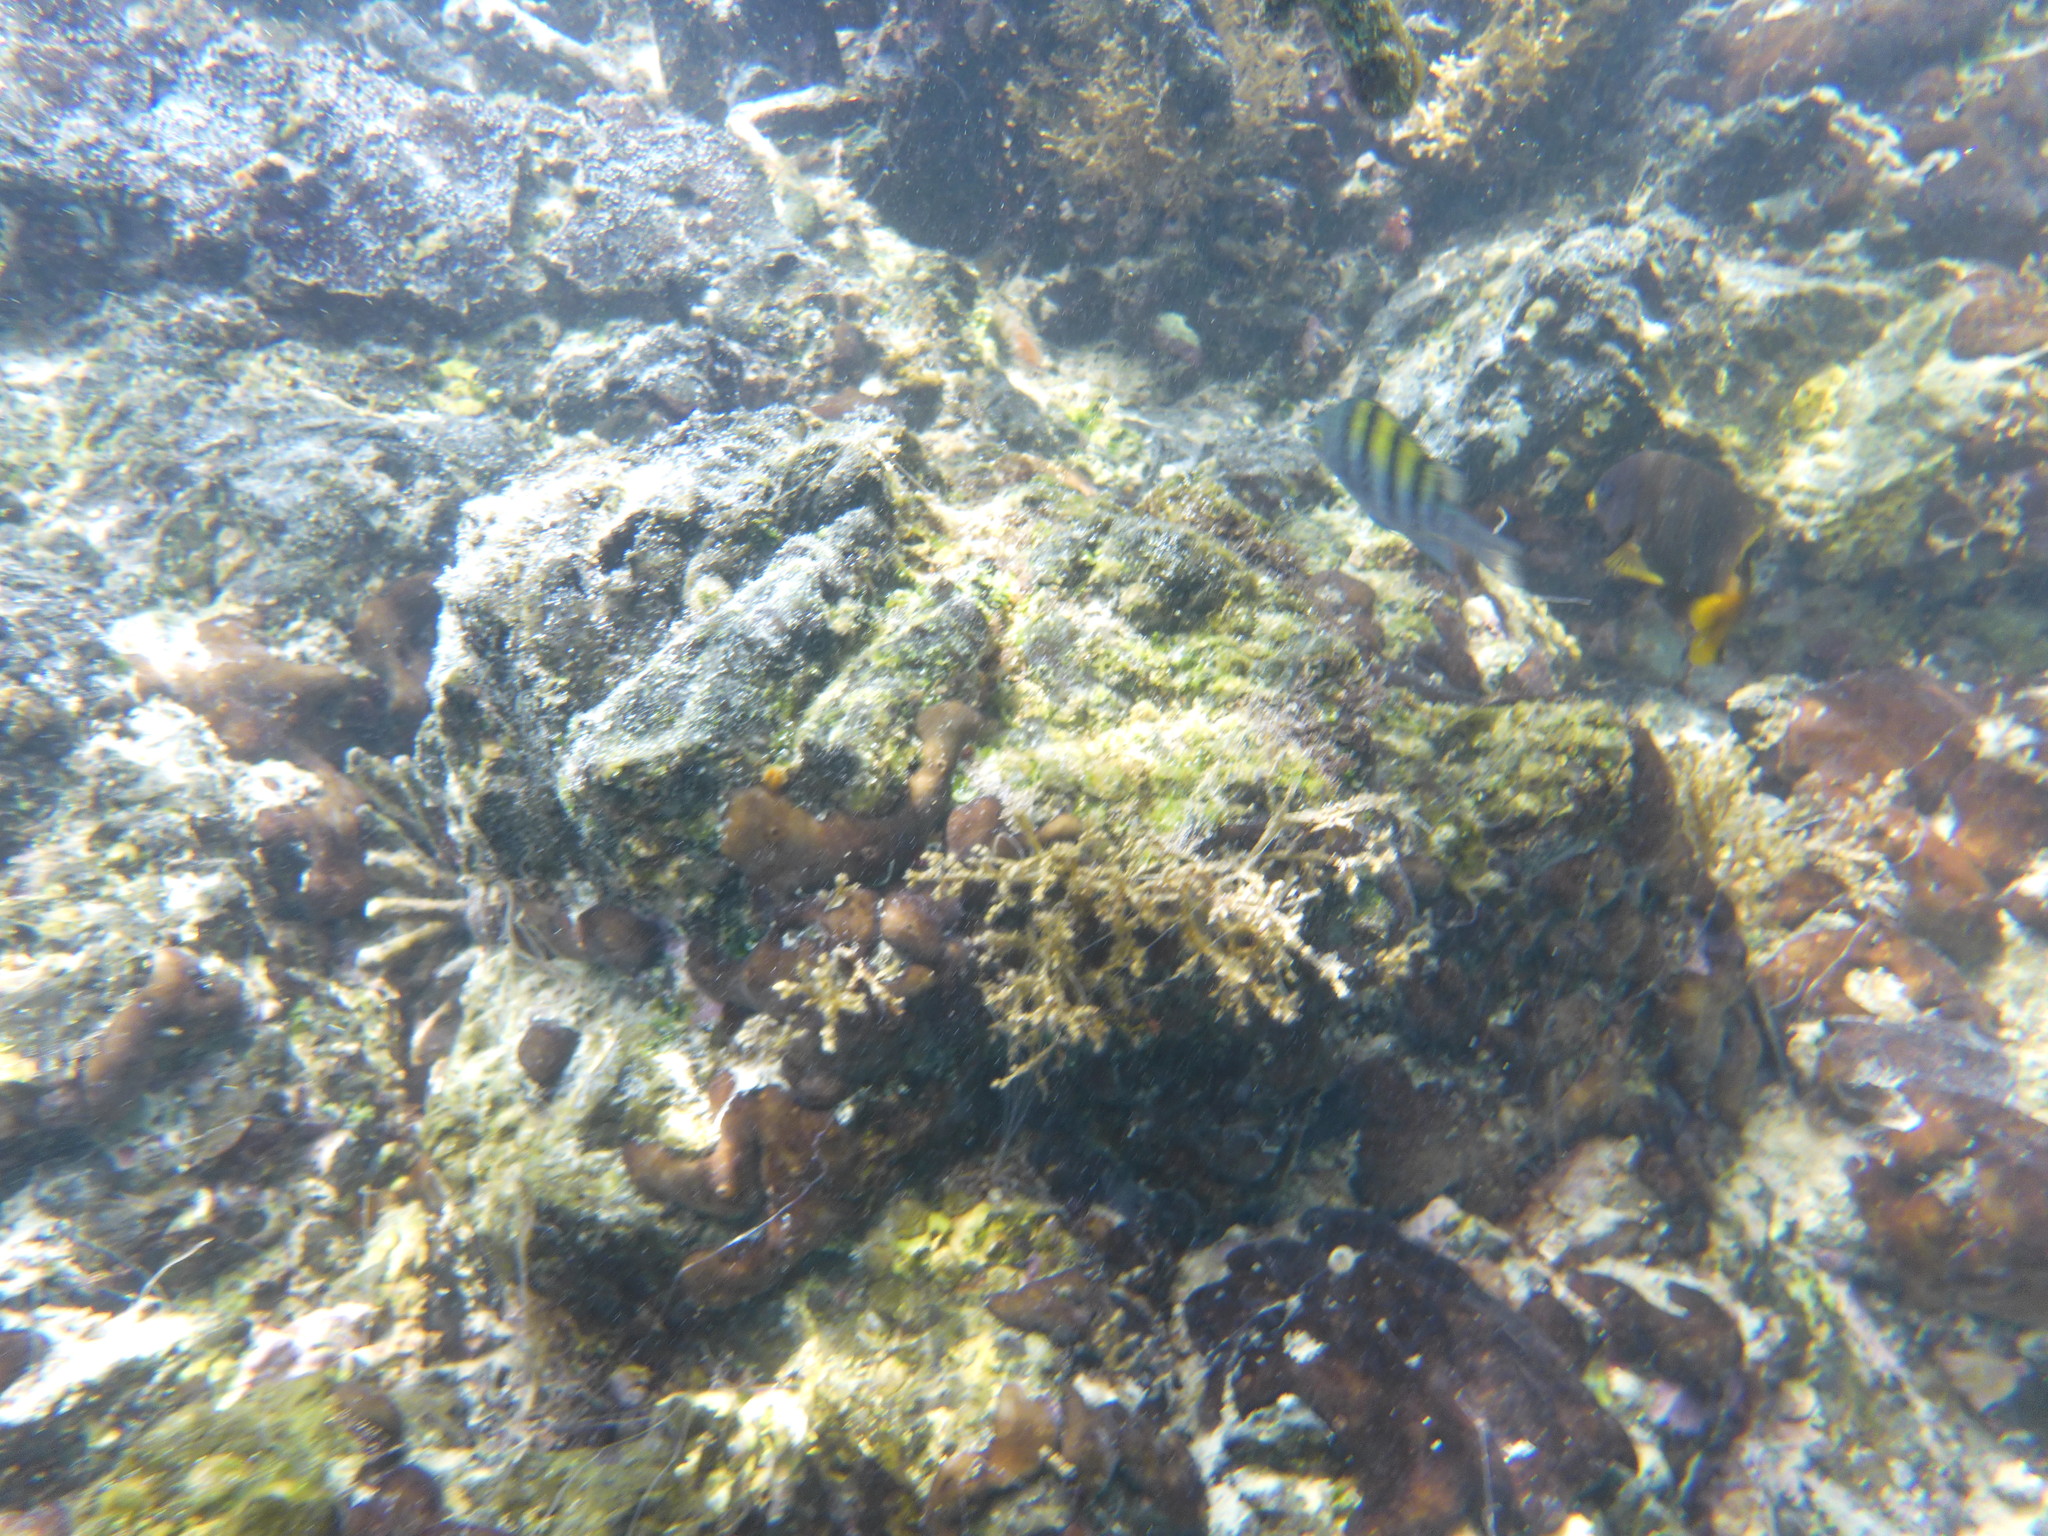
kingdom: Animalia
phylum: Chordata
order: Perciformes
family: Pomacentridae
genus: Abudefduf
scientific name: Abudefduf troschelii
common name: Panamic sergeant major
